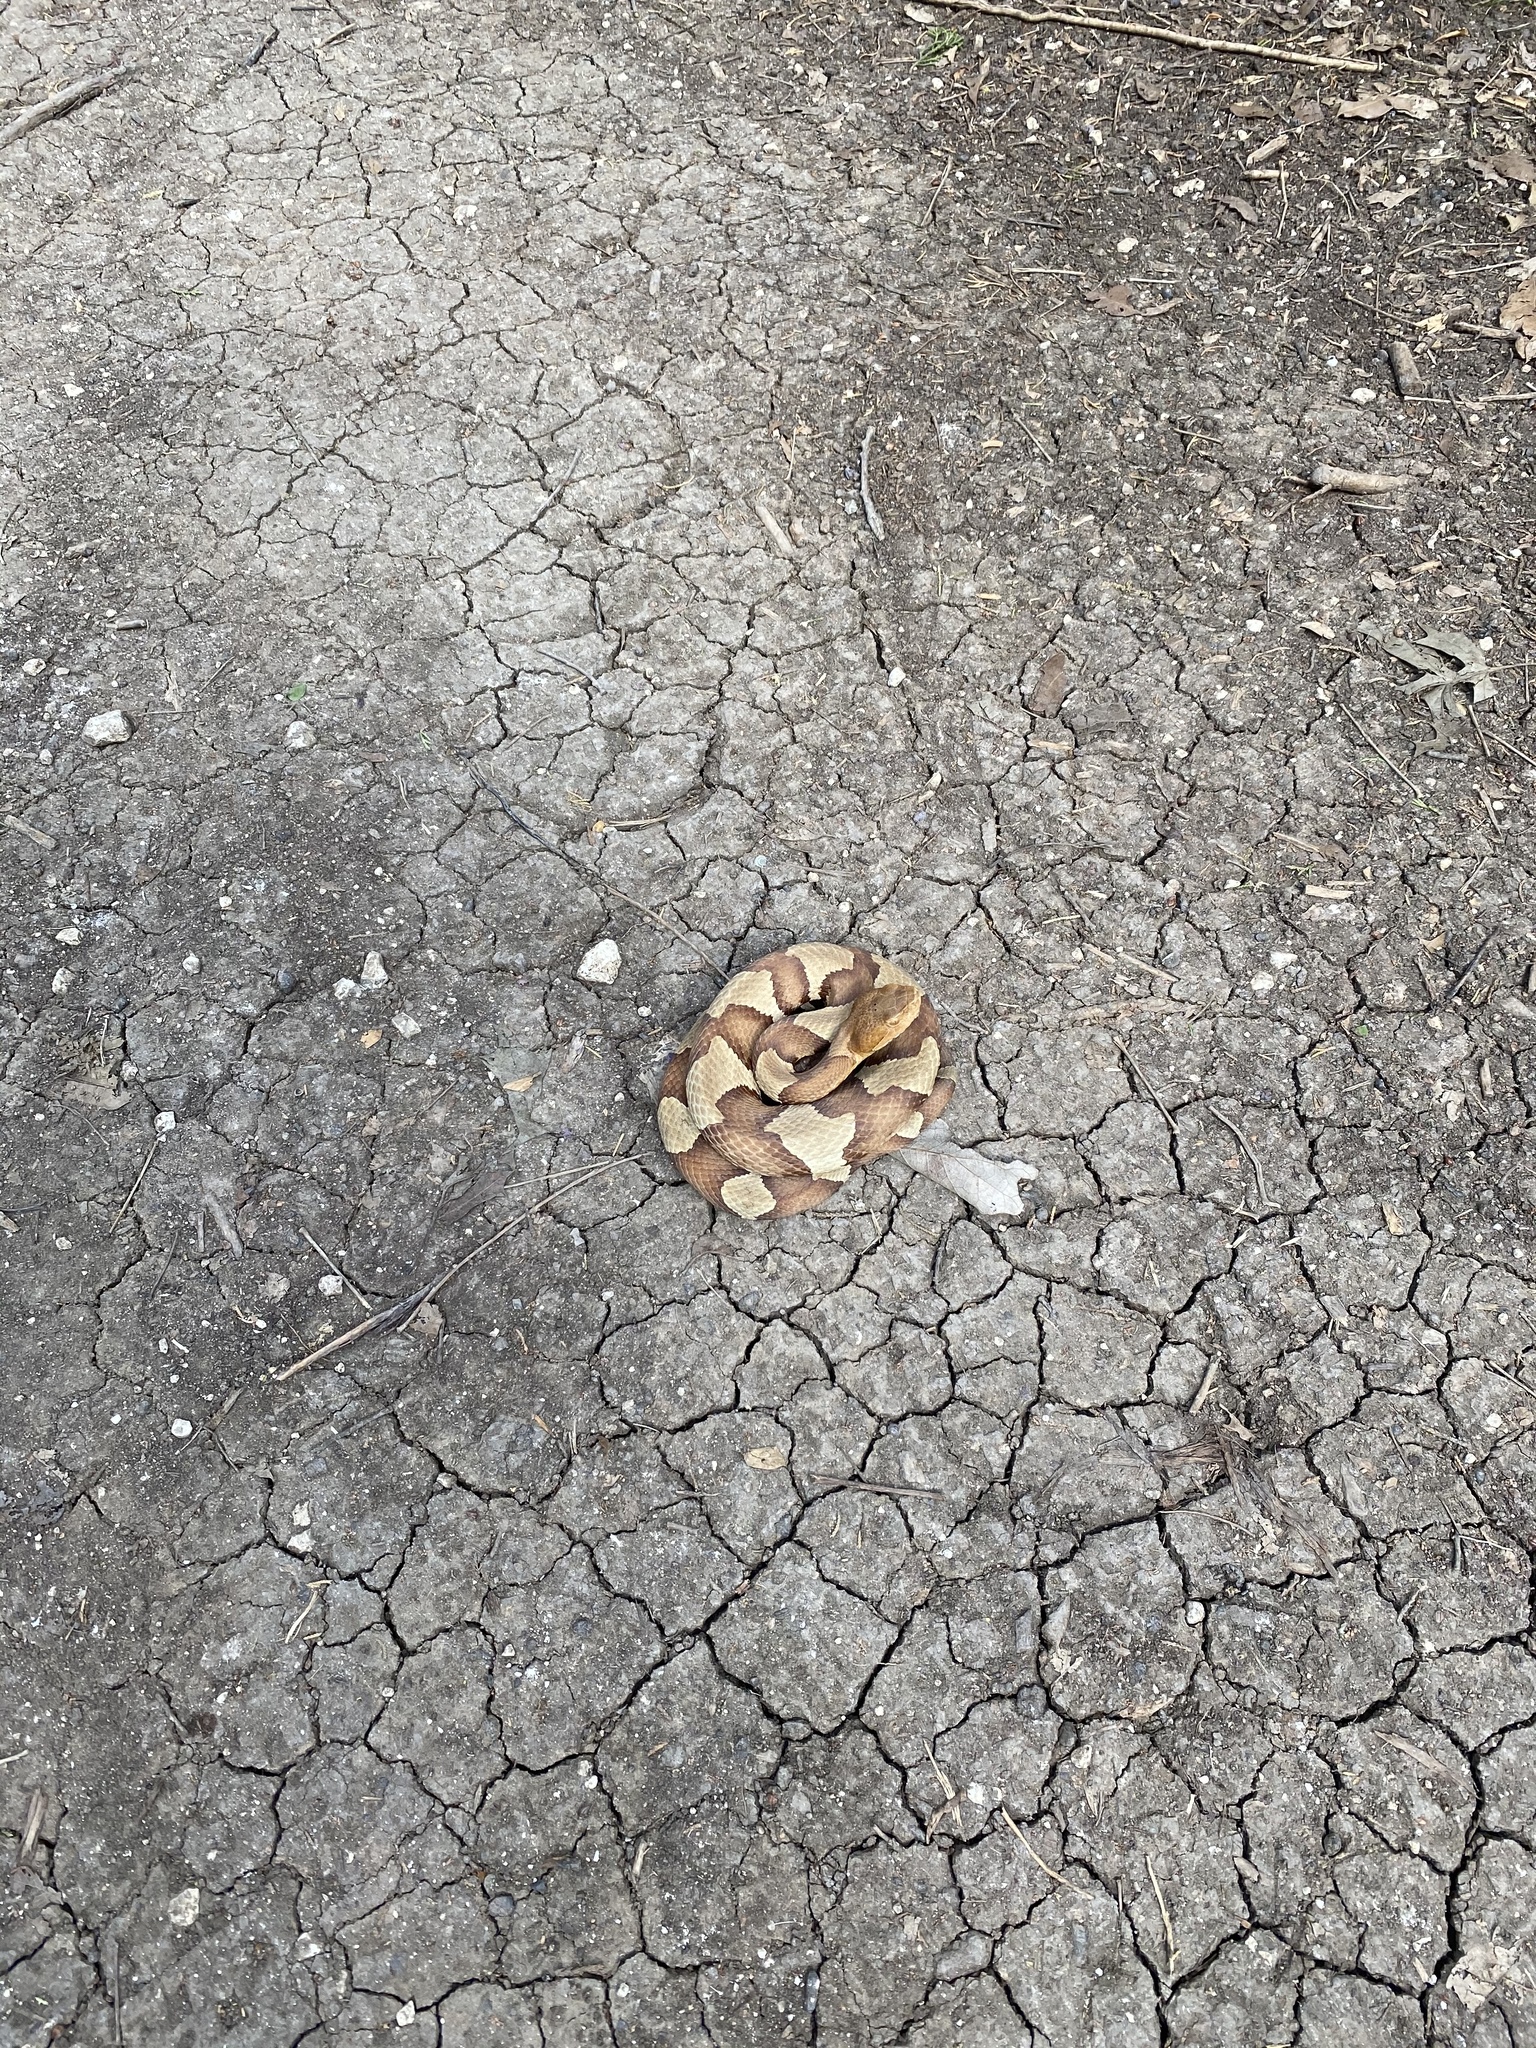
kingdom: Animalia
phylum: Chordata
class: Squamata
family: Viperidae
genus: Agkistrodon
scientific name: Agkistrodon laticinctus
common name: Broad-banded copperhead
